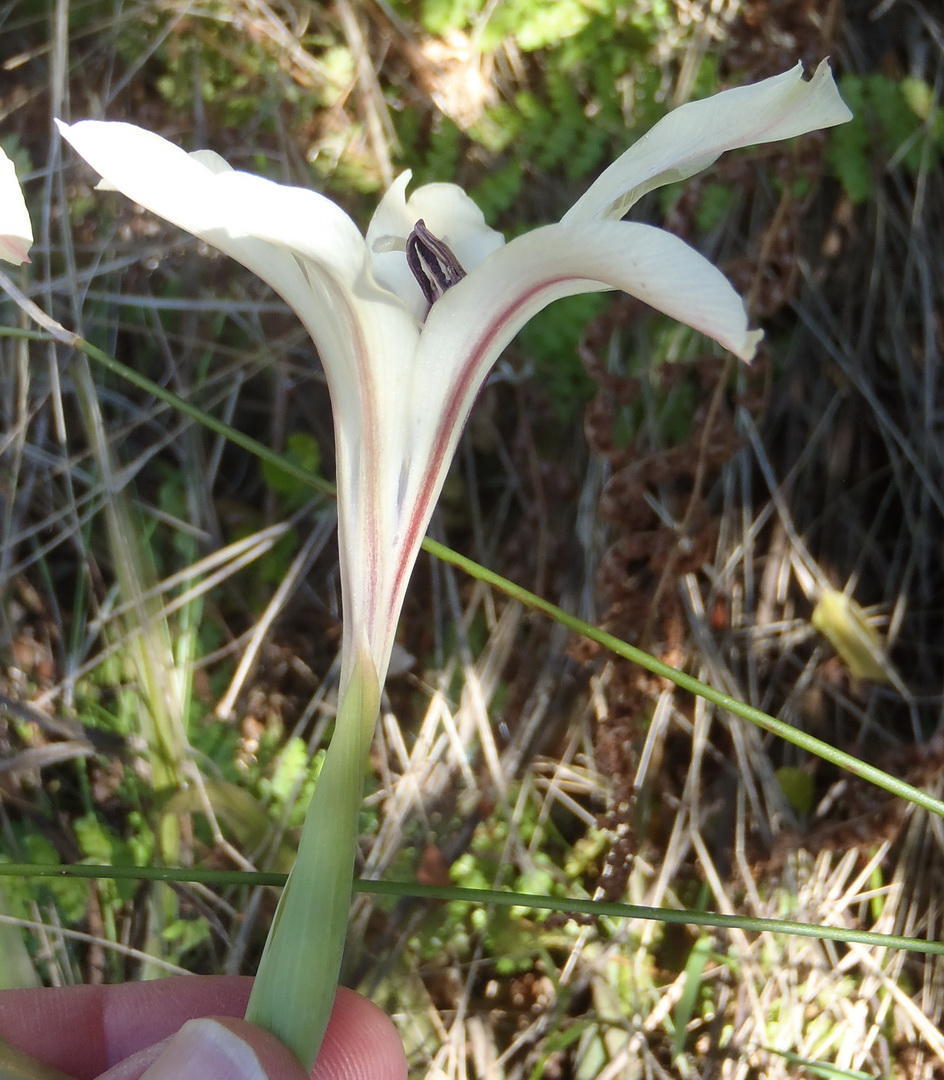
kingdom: Plantae
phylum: Tracheophyta
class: Liliopsida
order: Asparagales
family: Iridaceae
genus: Gladiolus
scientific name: Gladiolus floribundus
